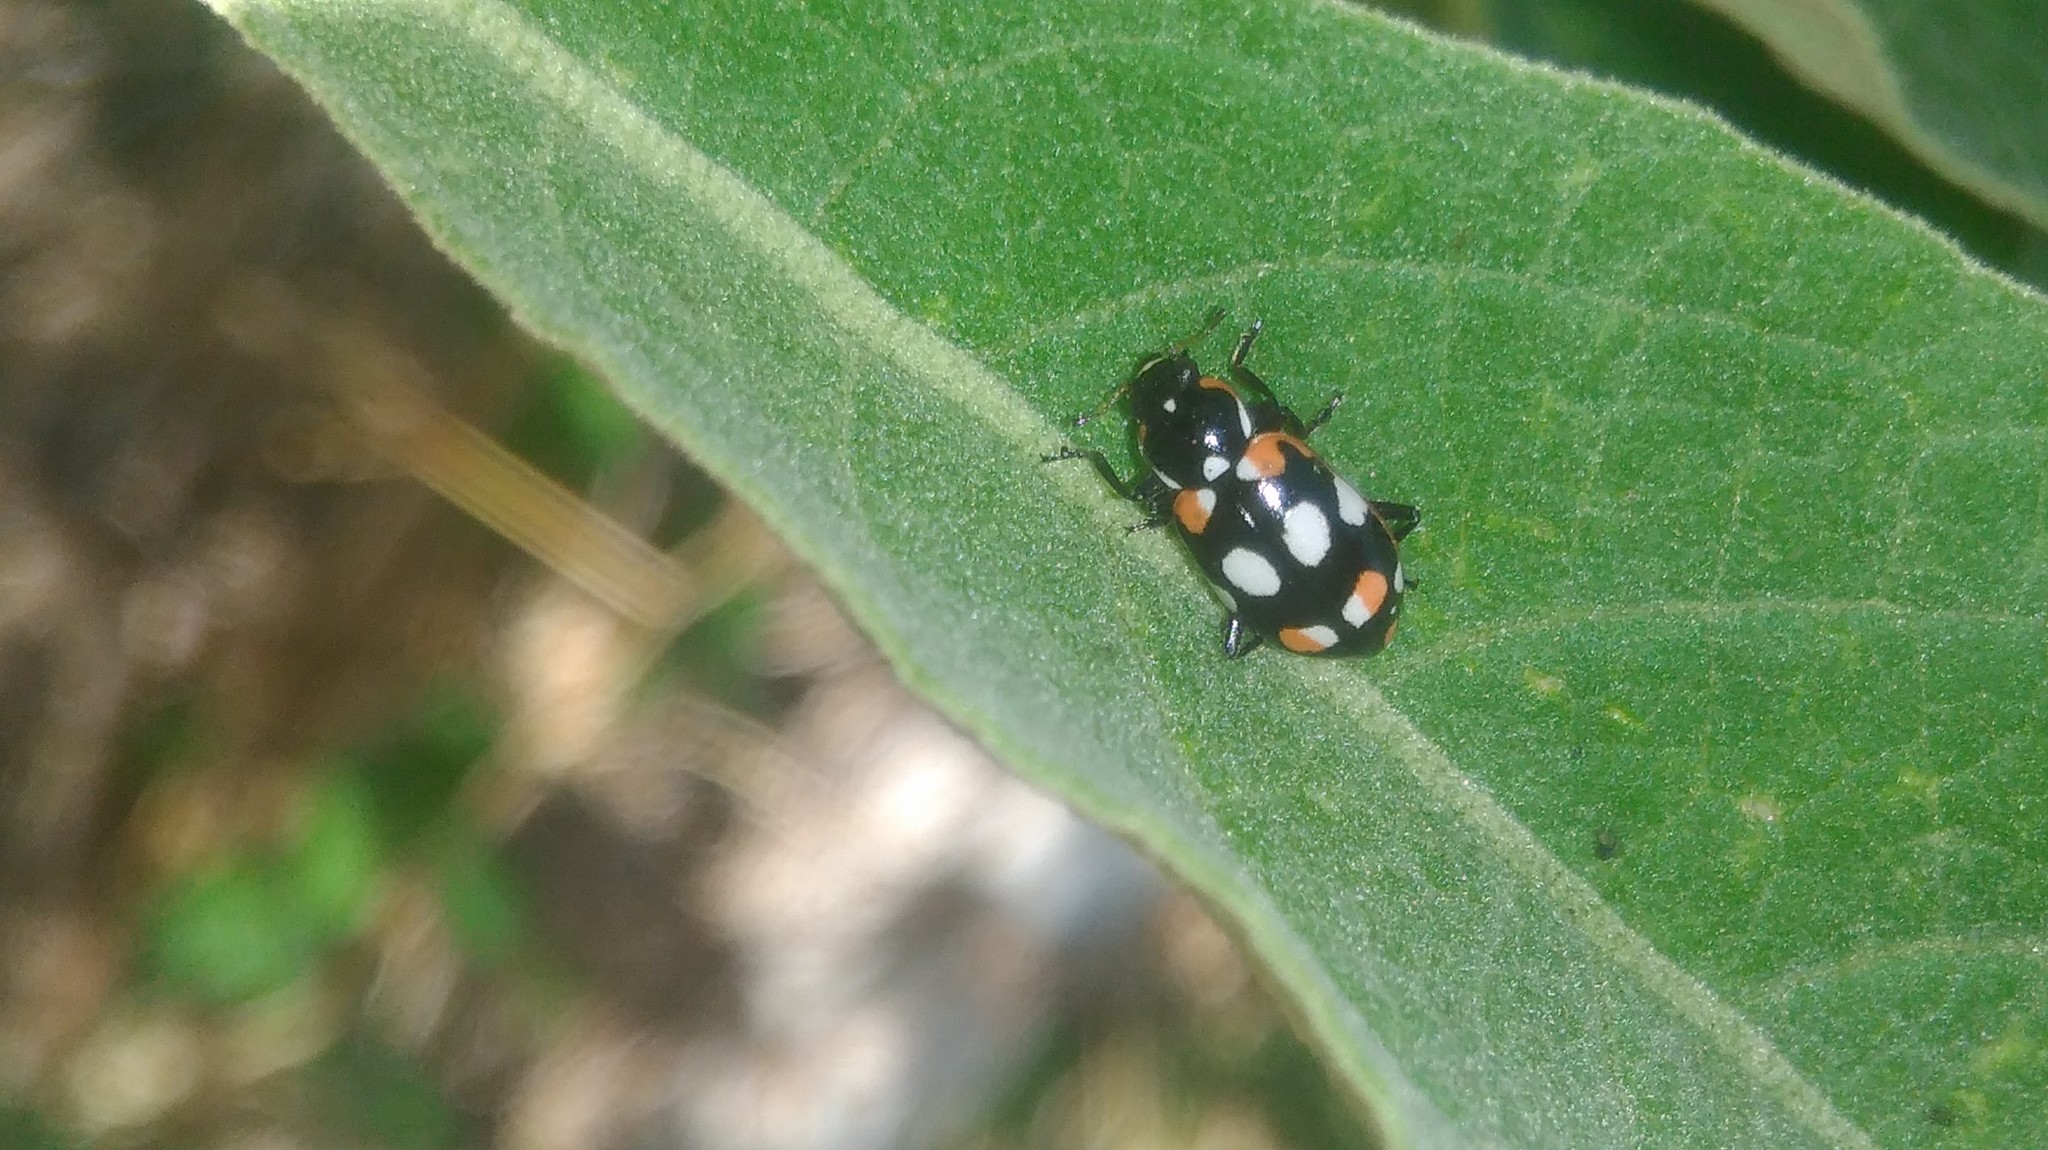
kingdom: Animalia
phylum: Arthropoda
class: Insecta
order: Coleoptera
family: Coccinellidae
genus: Eriopis
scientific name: Eriopis connexa
